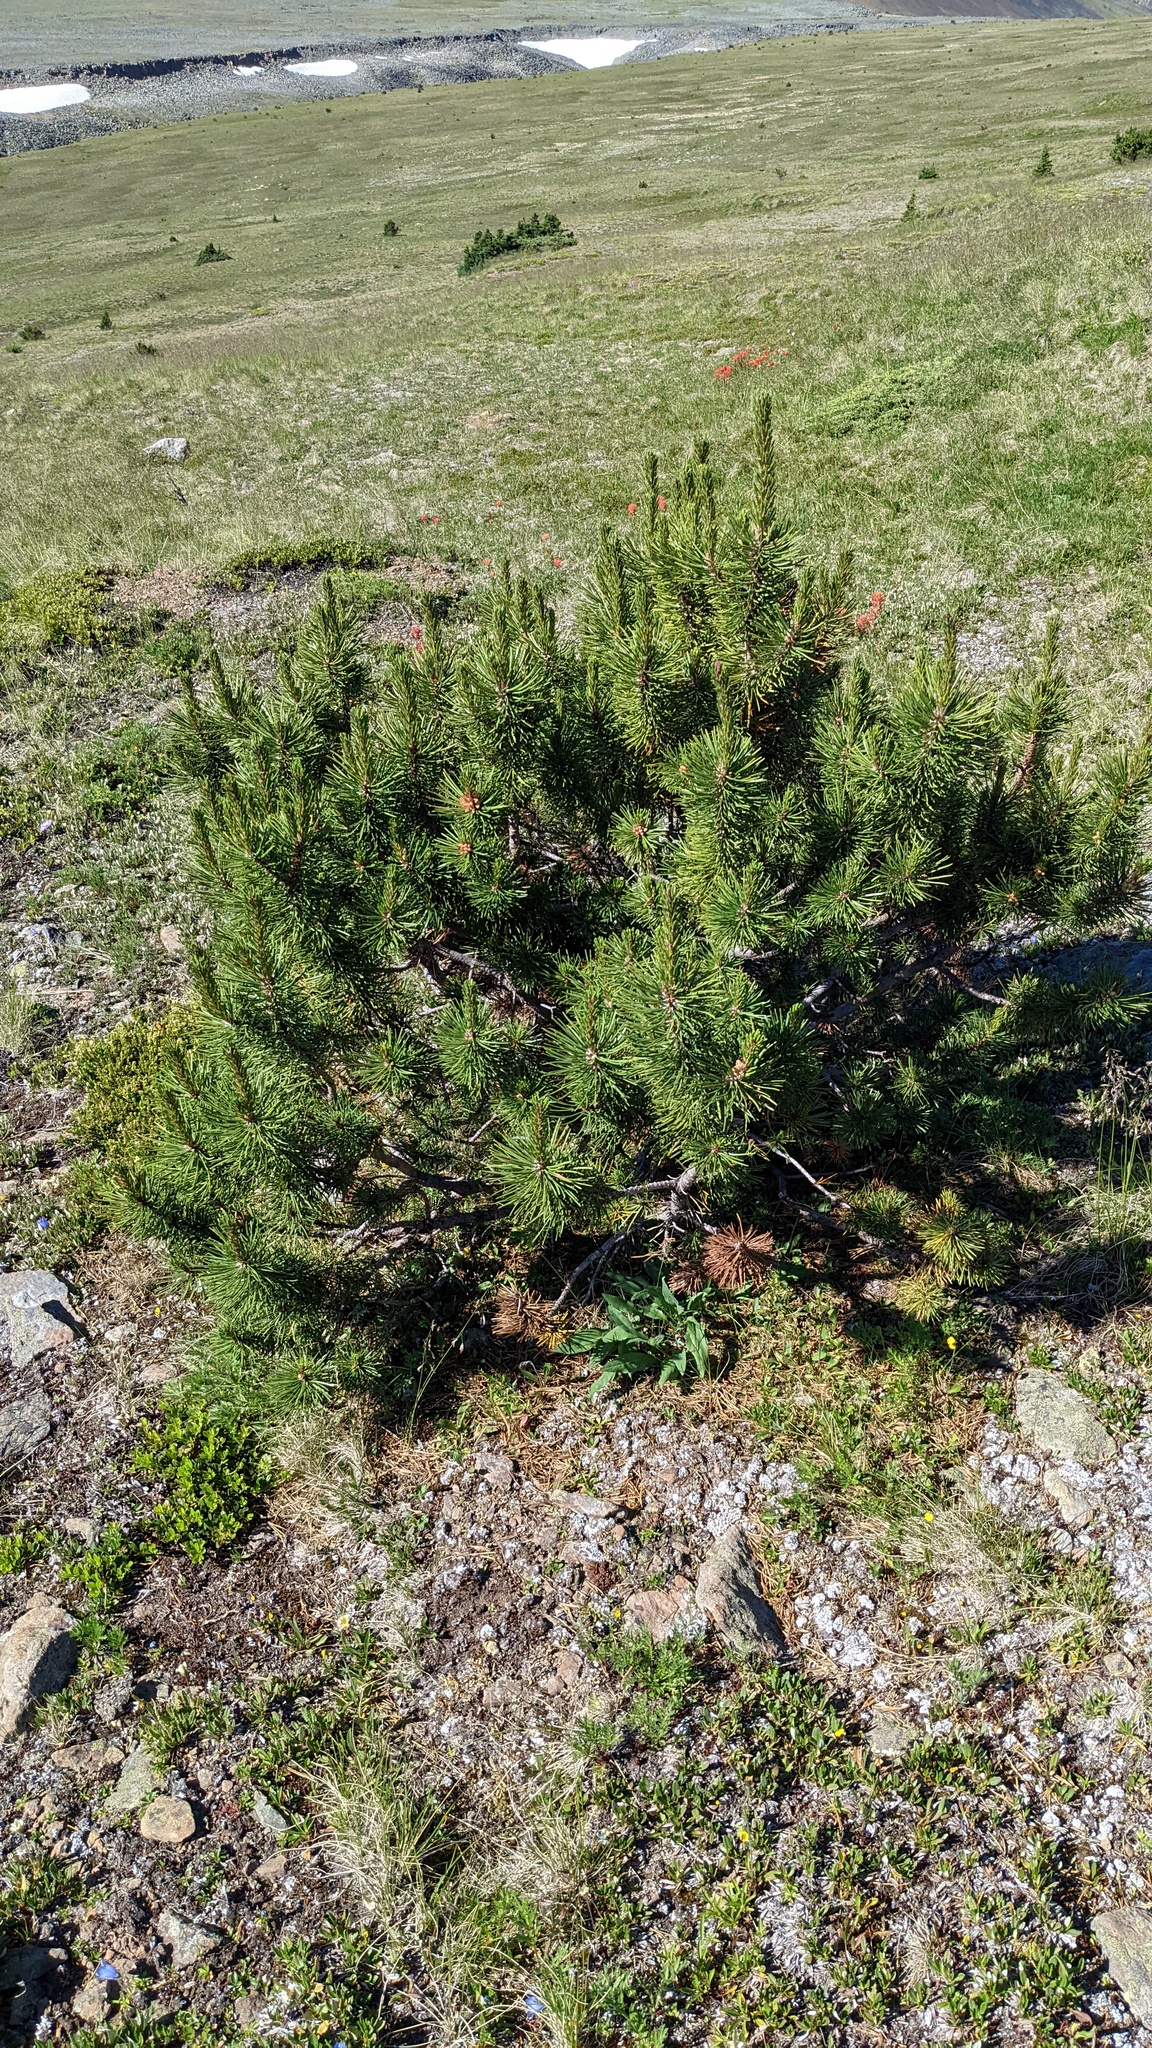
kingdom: Plantae
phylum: Tracheophyta
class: Pinopsida
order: Pinales
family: Pinaceae
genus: Pinus
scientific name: Pinus albicaulis
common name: Whitebark pine
